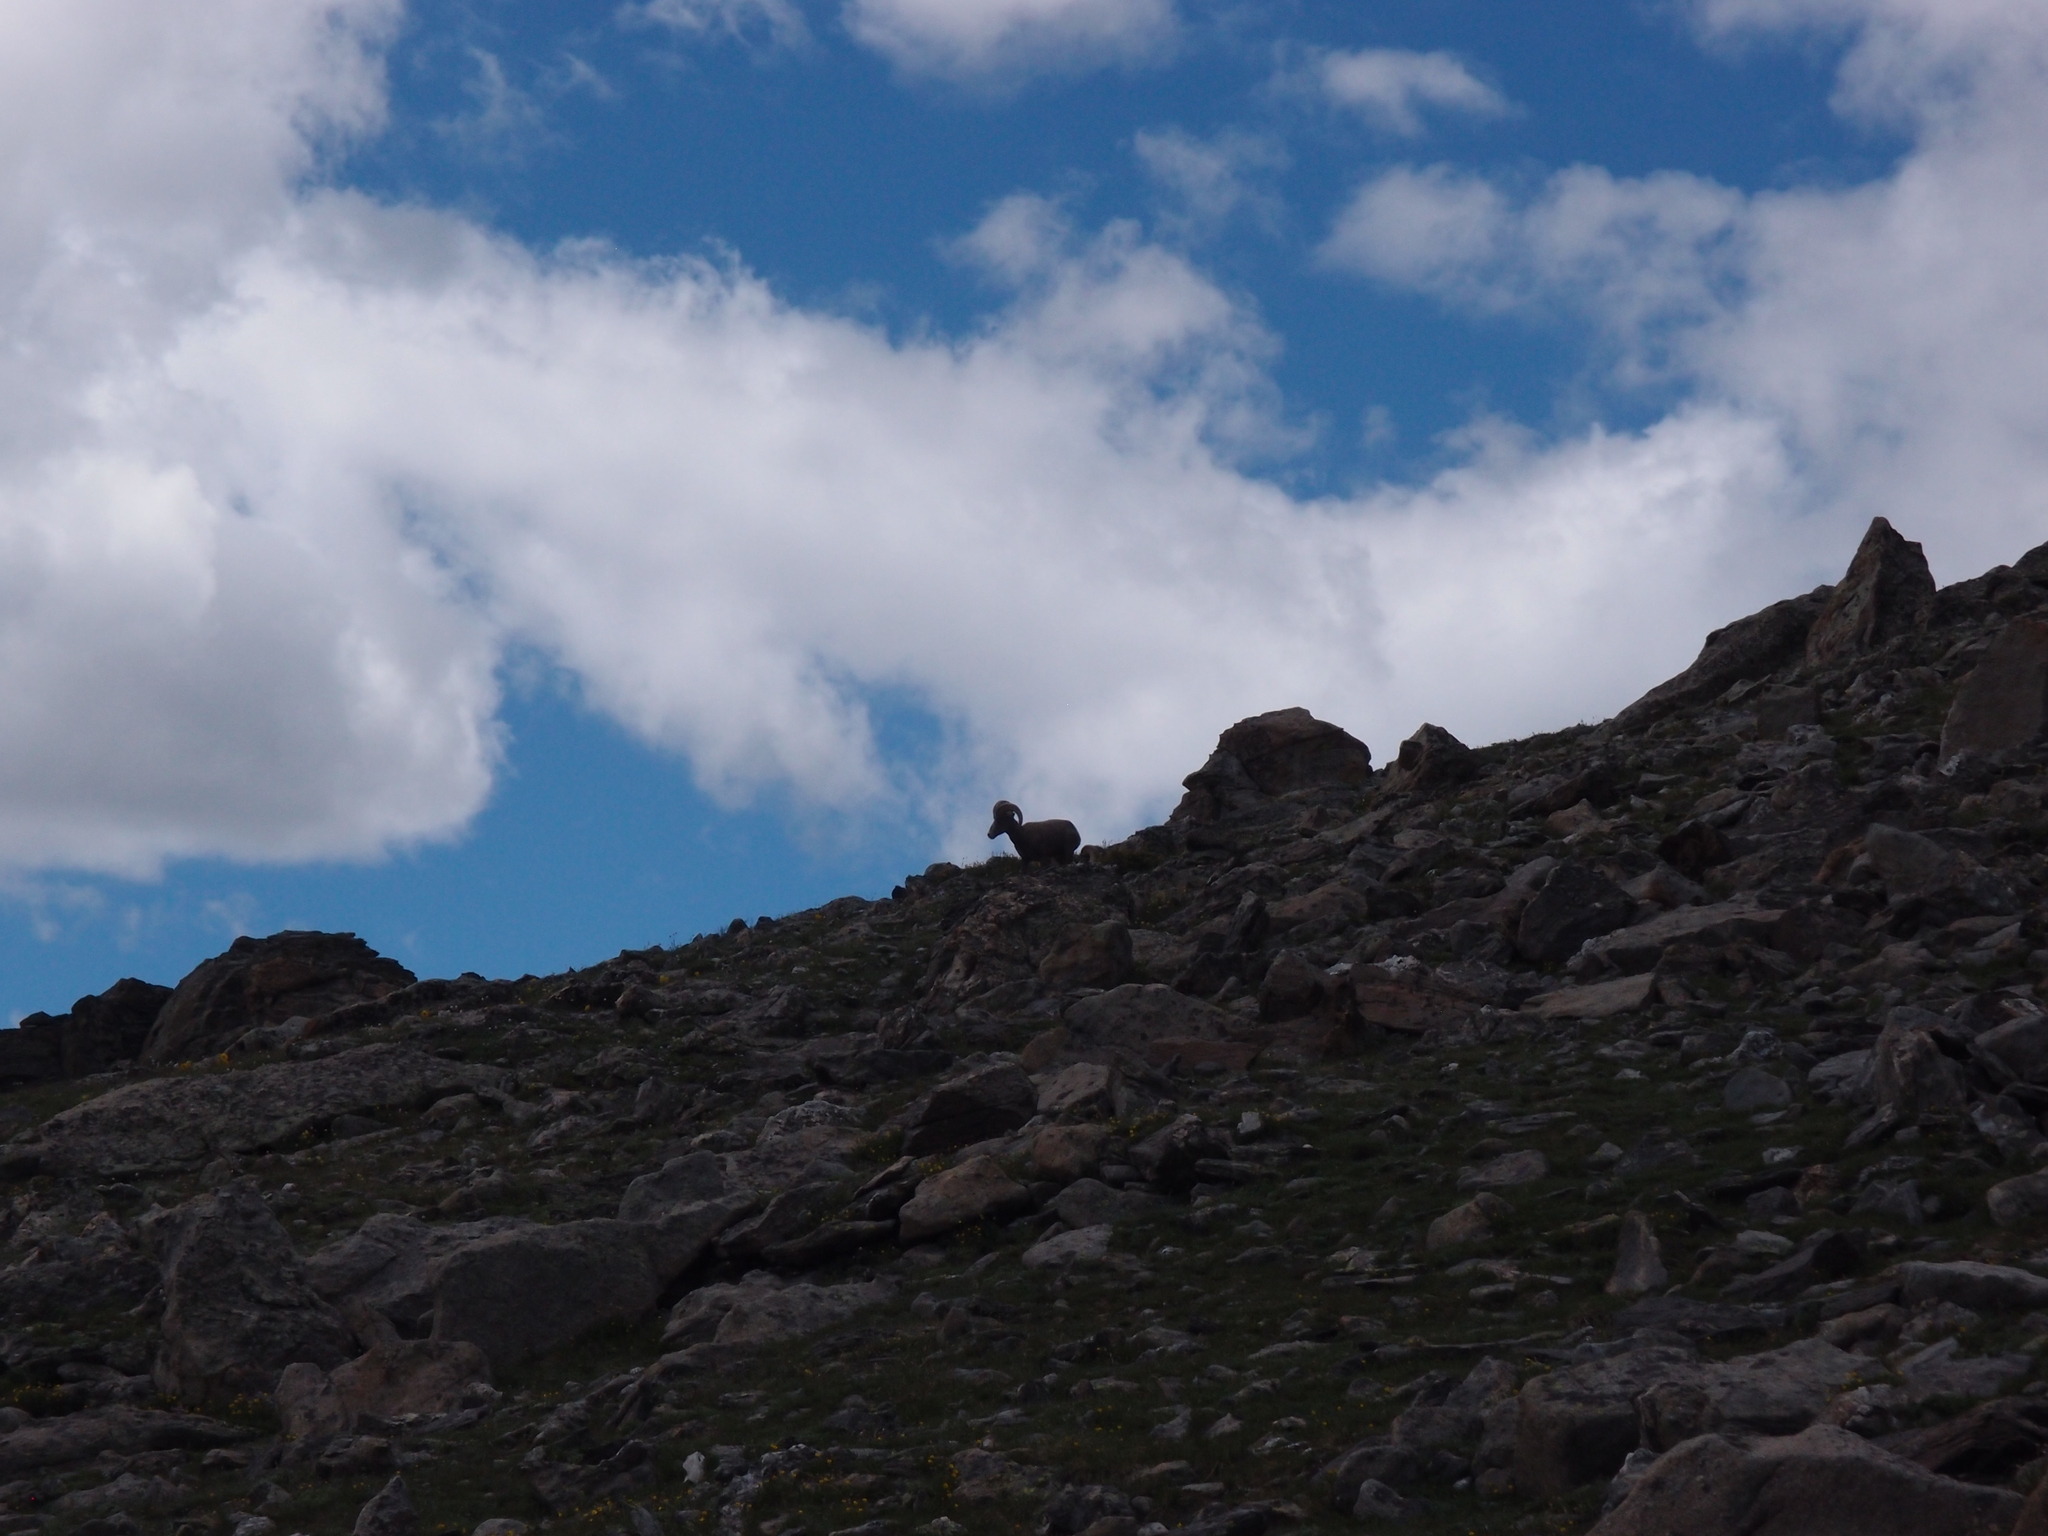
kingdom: Animalia
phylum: Chordata
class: Mammalia
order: Artiodactyla
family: Bovidae
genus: Ovis
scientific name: Ovis canadensis
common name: Bighorn sheep
